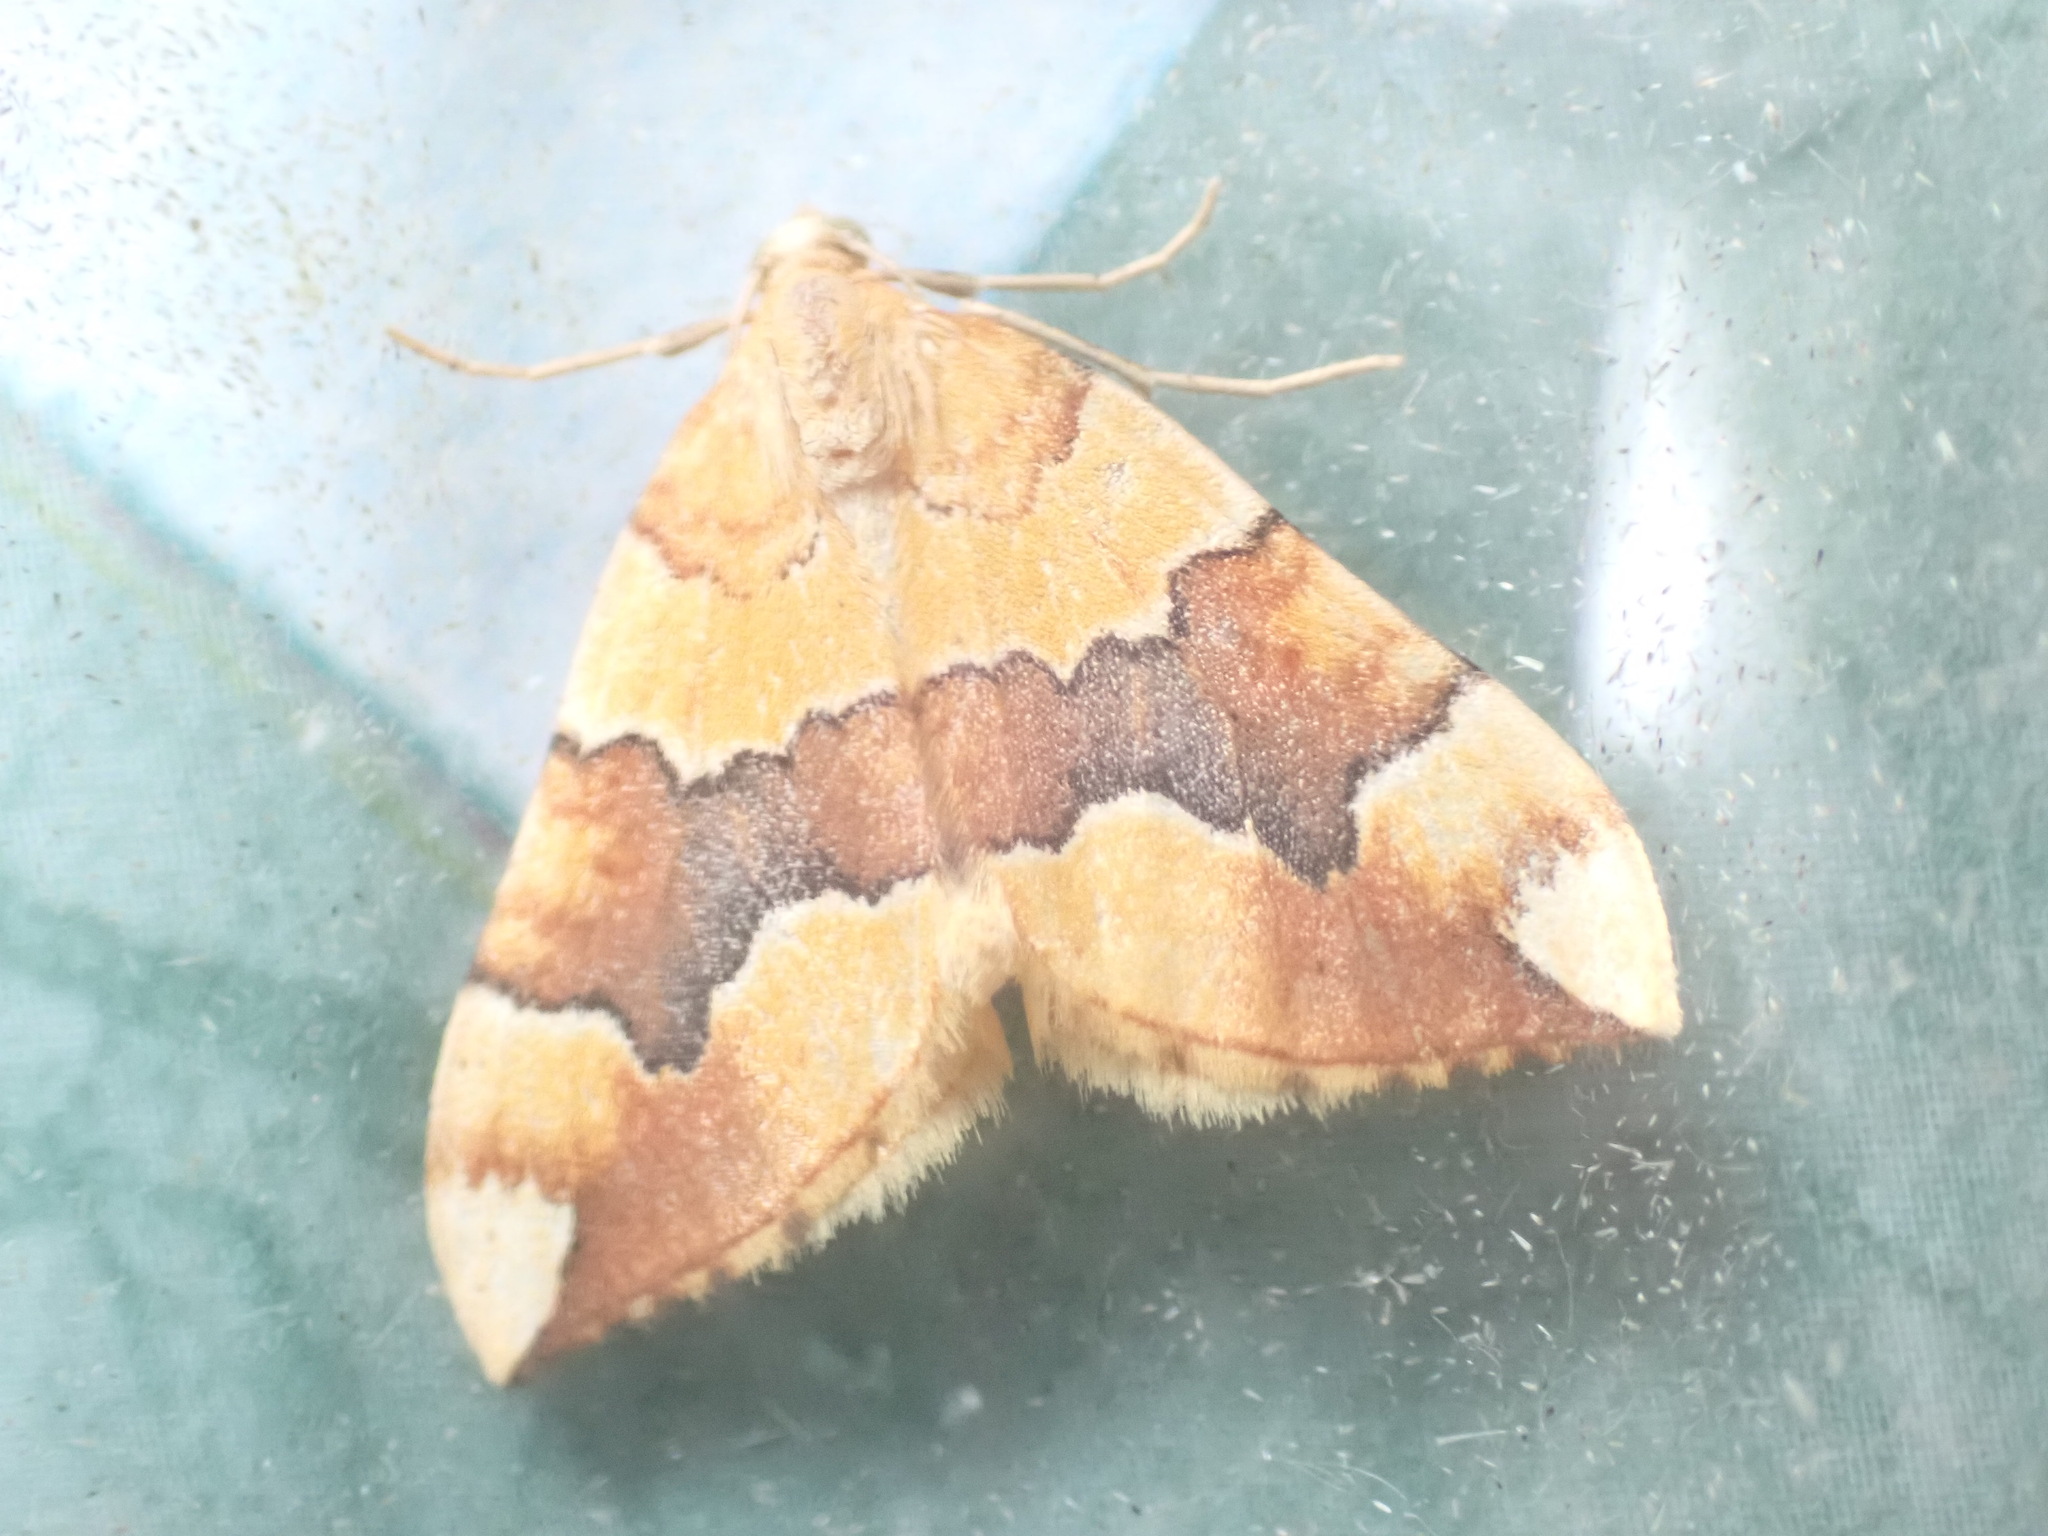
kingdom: Animalia
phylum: Arthropoda
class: Insecta
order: Lepidoptera
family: Geometridae
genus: Cidaria
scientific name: Cidaria fulvata
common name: Barred yellow
